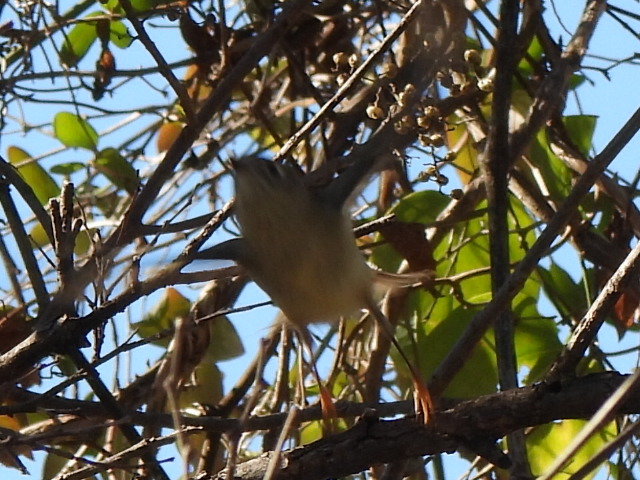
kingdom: Animalia
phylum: Chordata
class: Aves
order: Passeriformes
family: Regulidae
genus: Regulus
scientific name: Regulus calendula
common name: Ruby-crowned kinglet
